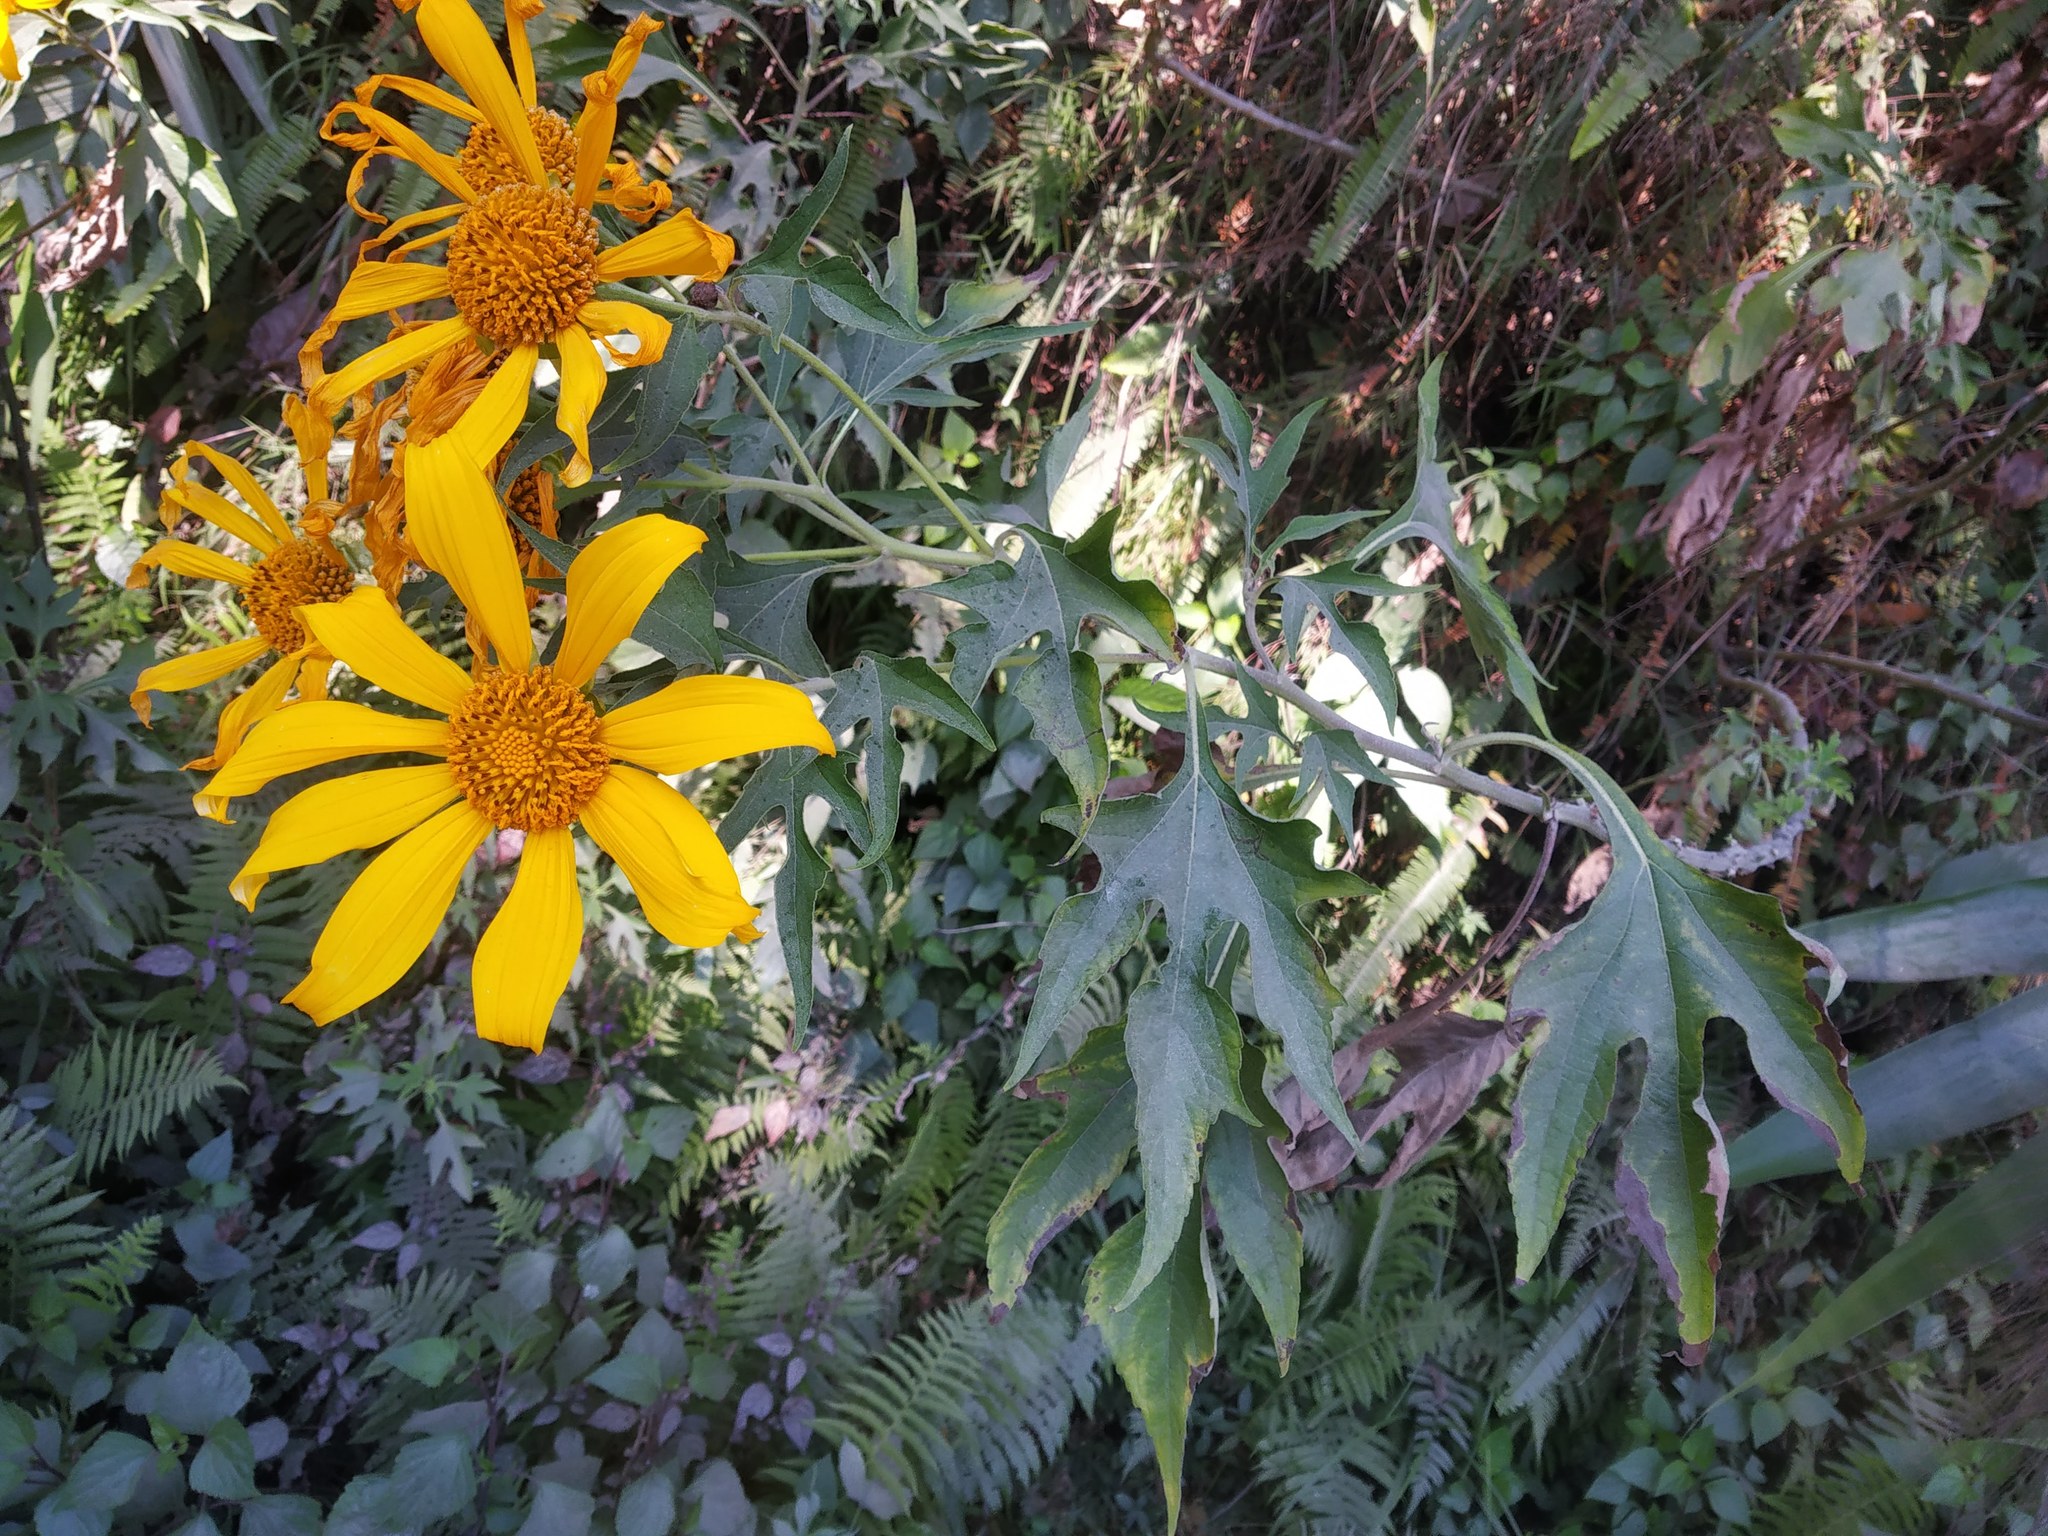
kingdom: Plantae
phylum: Tracheophyta
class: Magnoliopsida
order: Asterales
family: Asteraceae
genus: Tithonia
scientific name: Tithonia diversifolia
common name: Tree marigold
